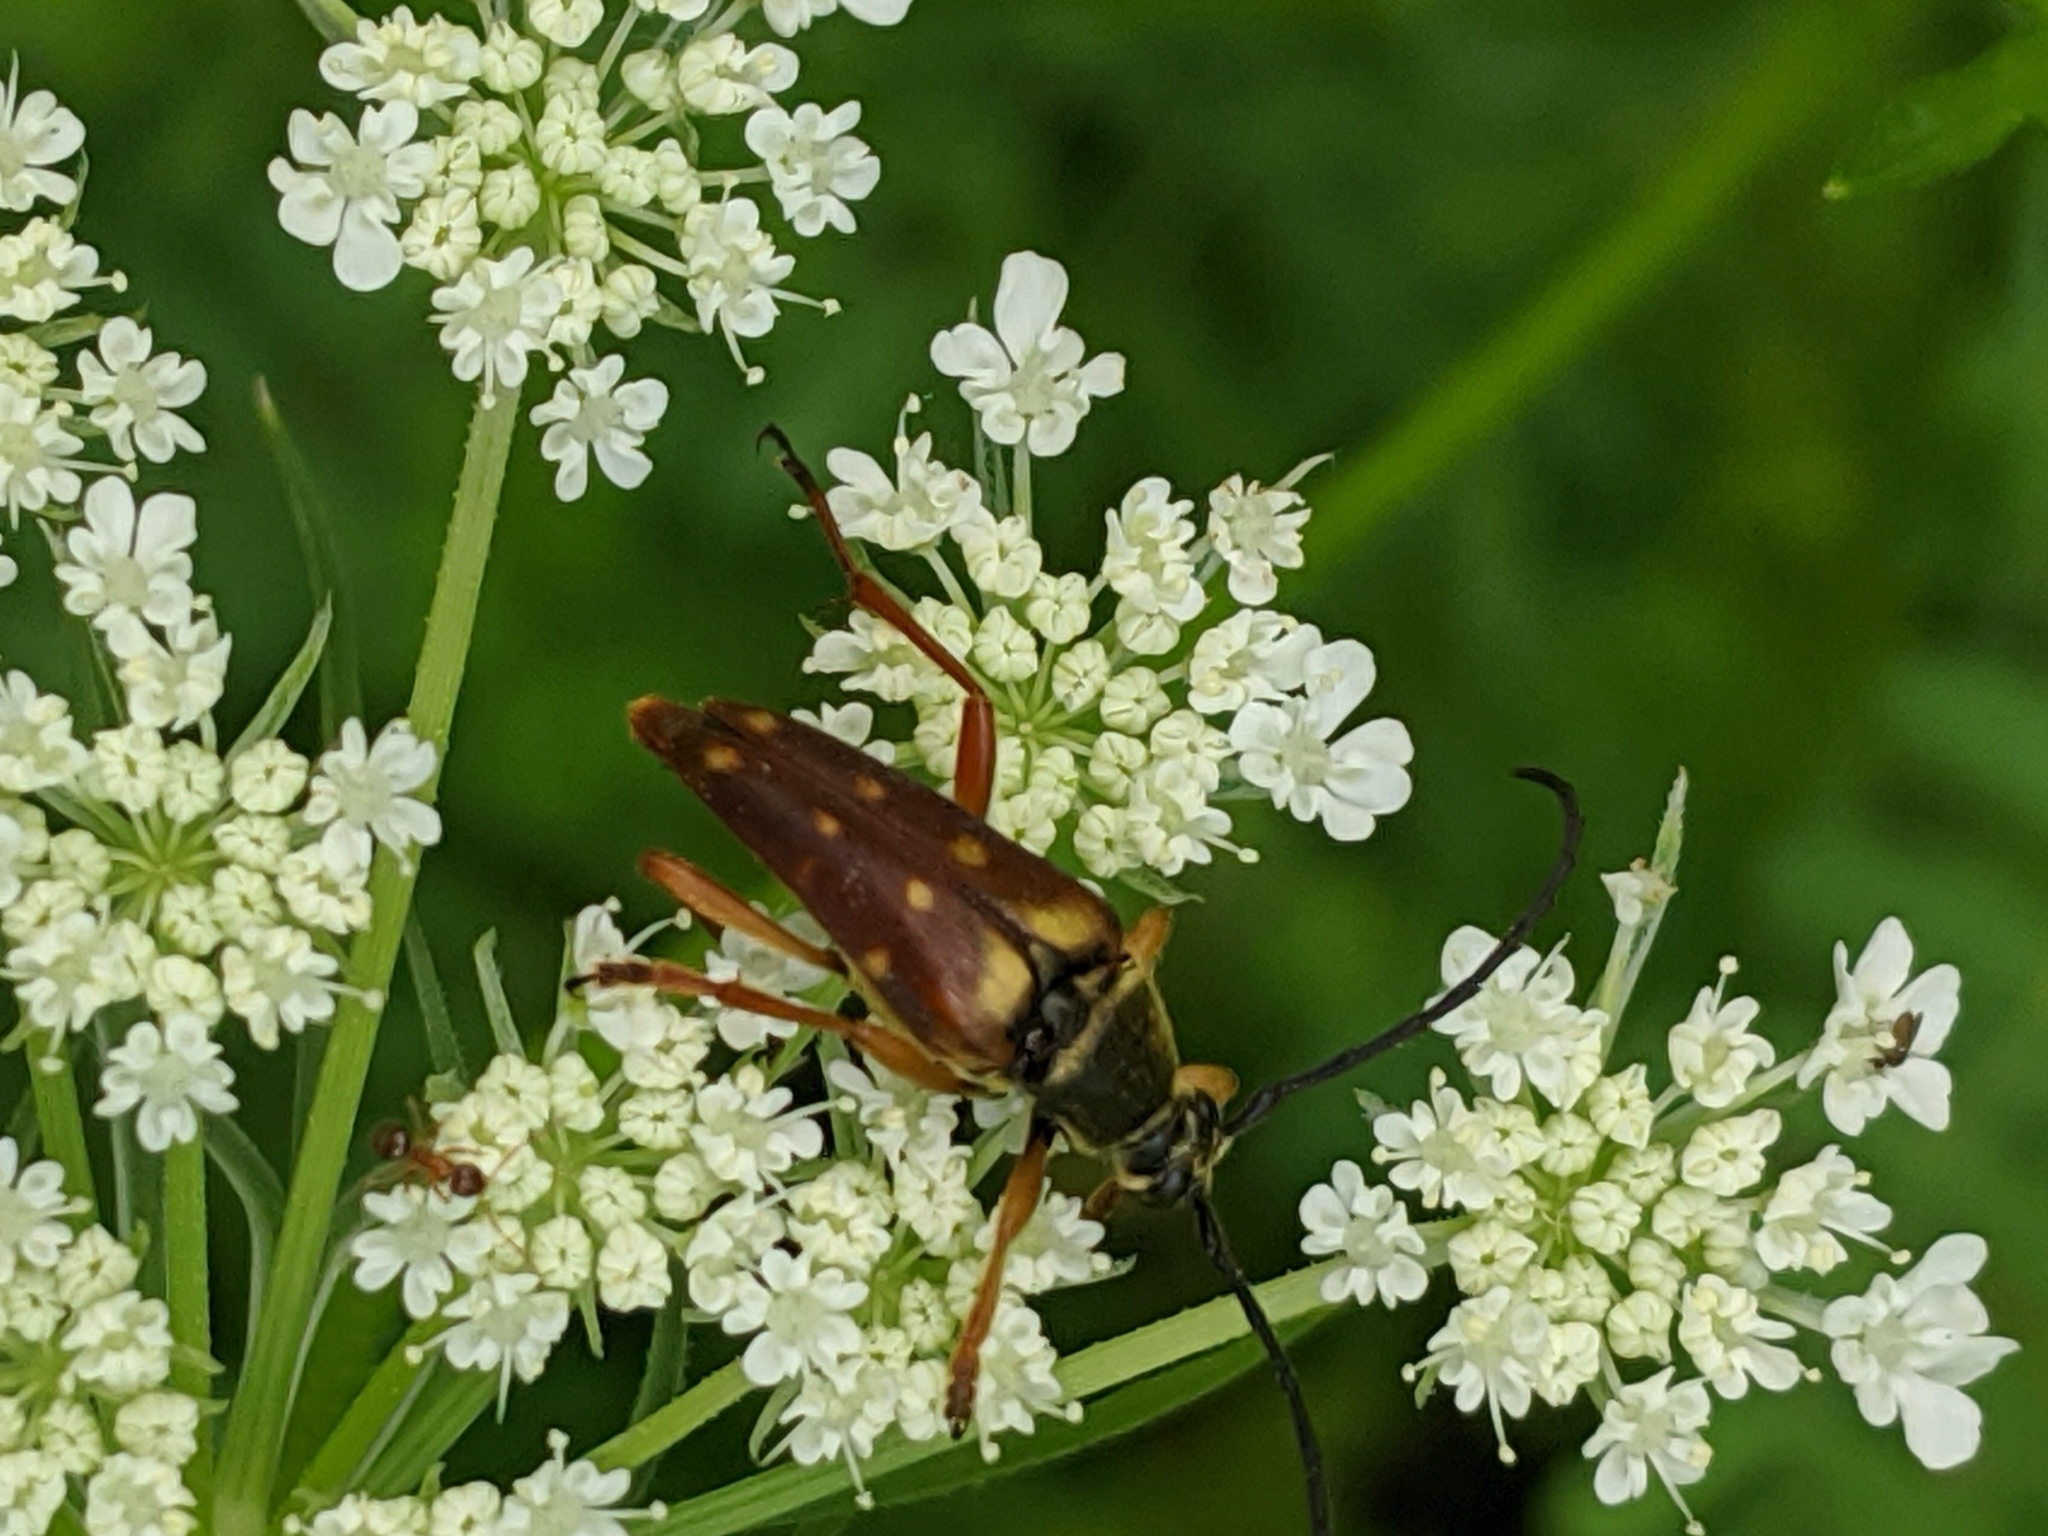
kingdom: Animalia
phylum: Arthropoda
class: Insecta
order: Coleoptera
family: Cerambycidae
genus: Typocerus
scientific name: Typocerus velutinus
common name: Banded longhorn beetle
